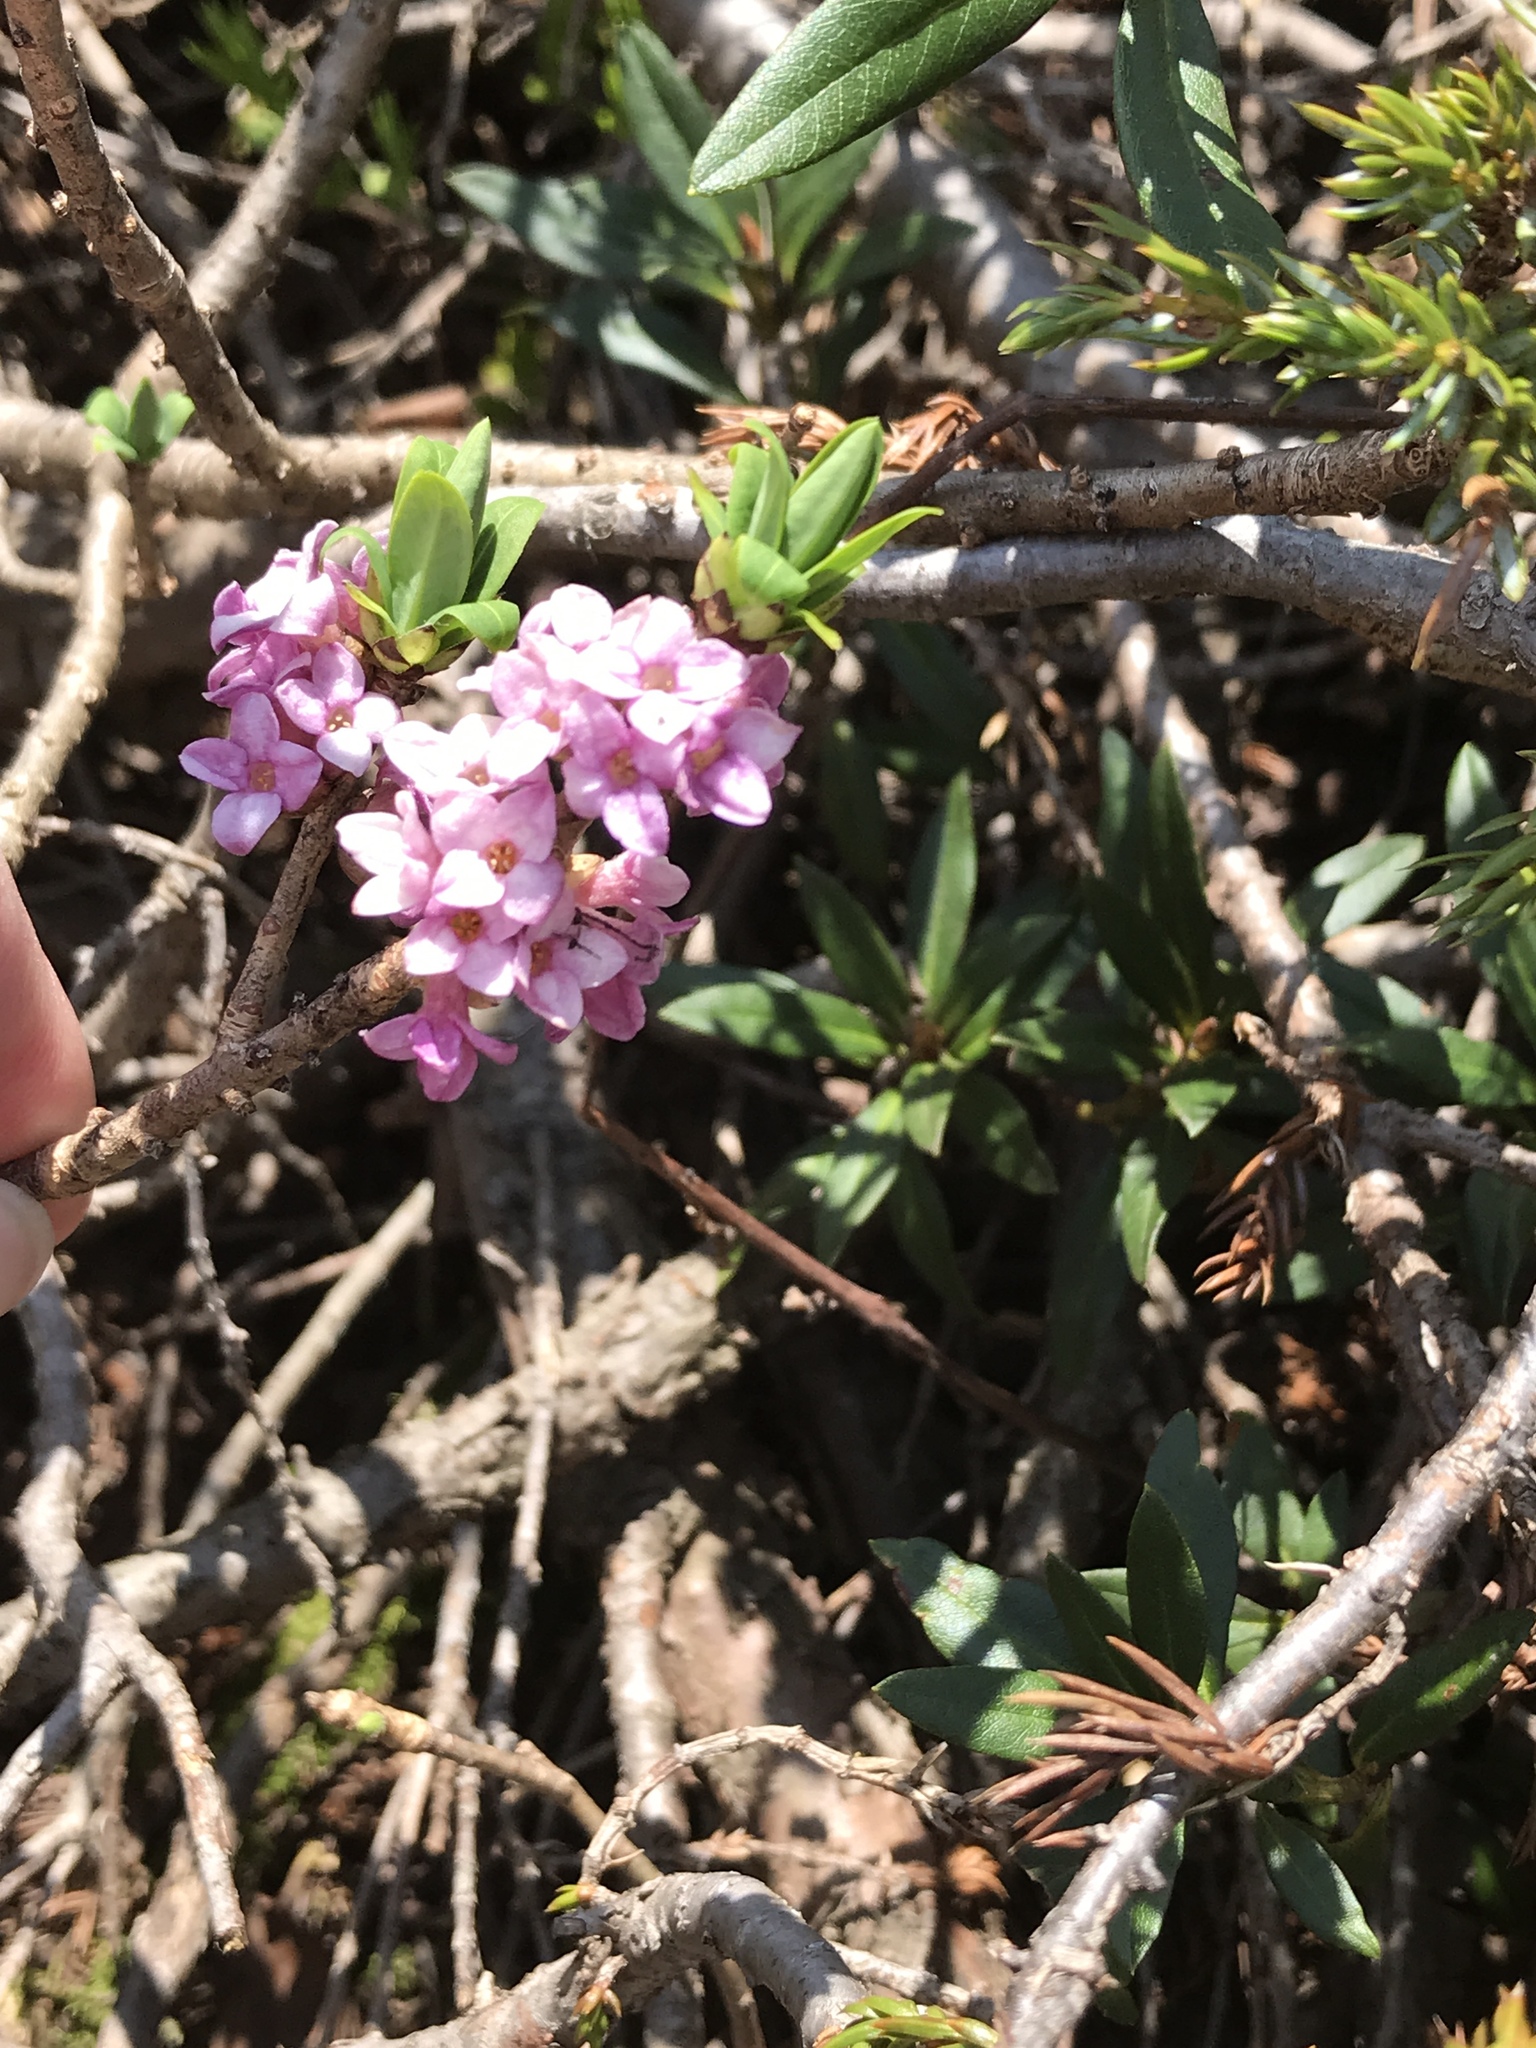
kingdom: Plantae
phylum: Tracheophyta
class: Magnoliopsida
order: Malvales
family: Thymelaeaceae
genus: Daphne
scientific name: Daphne mezereum
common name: Mezereon
